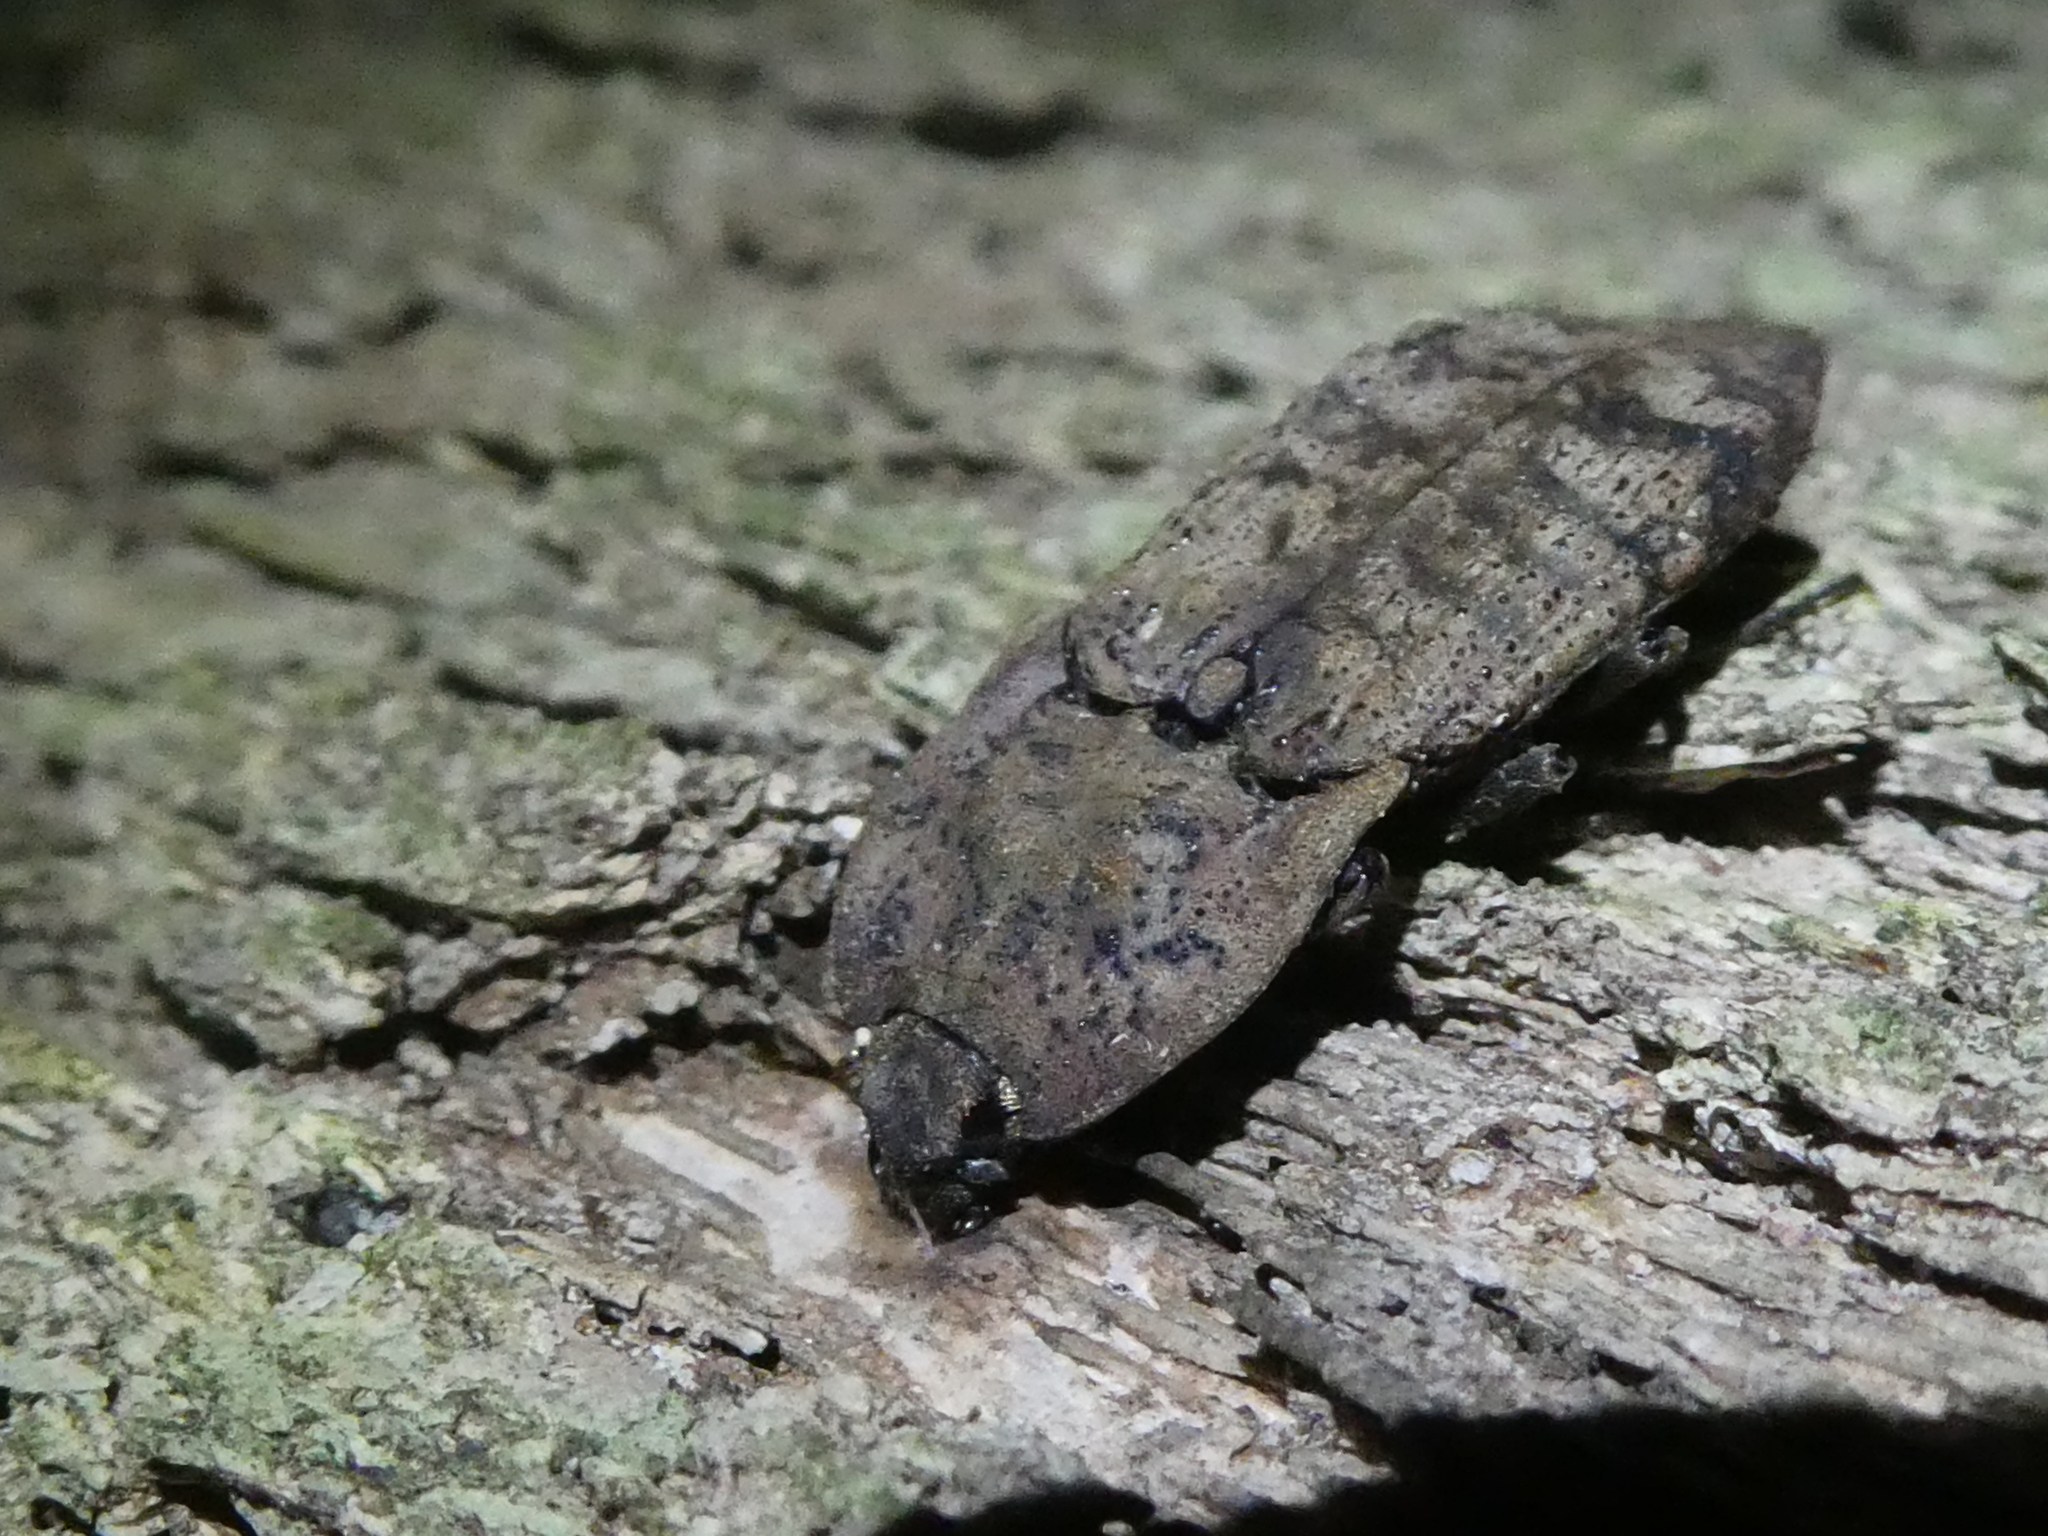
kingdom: Animalia
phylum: Arthropoda
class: Insecta
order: Coleoptera
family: Elateridae
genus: Amychus
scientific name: Amychus
